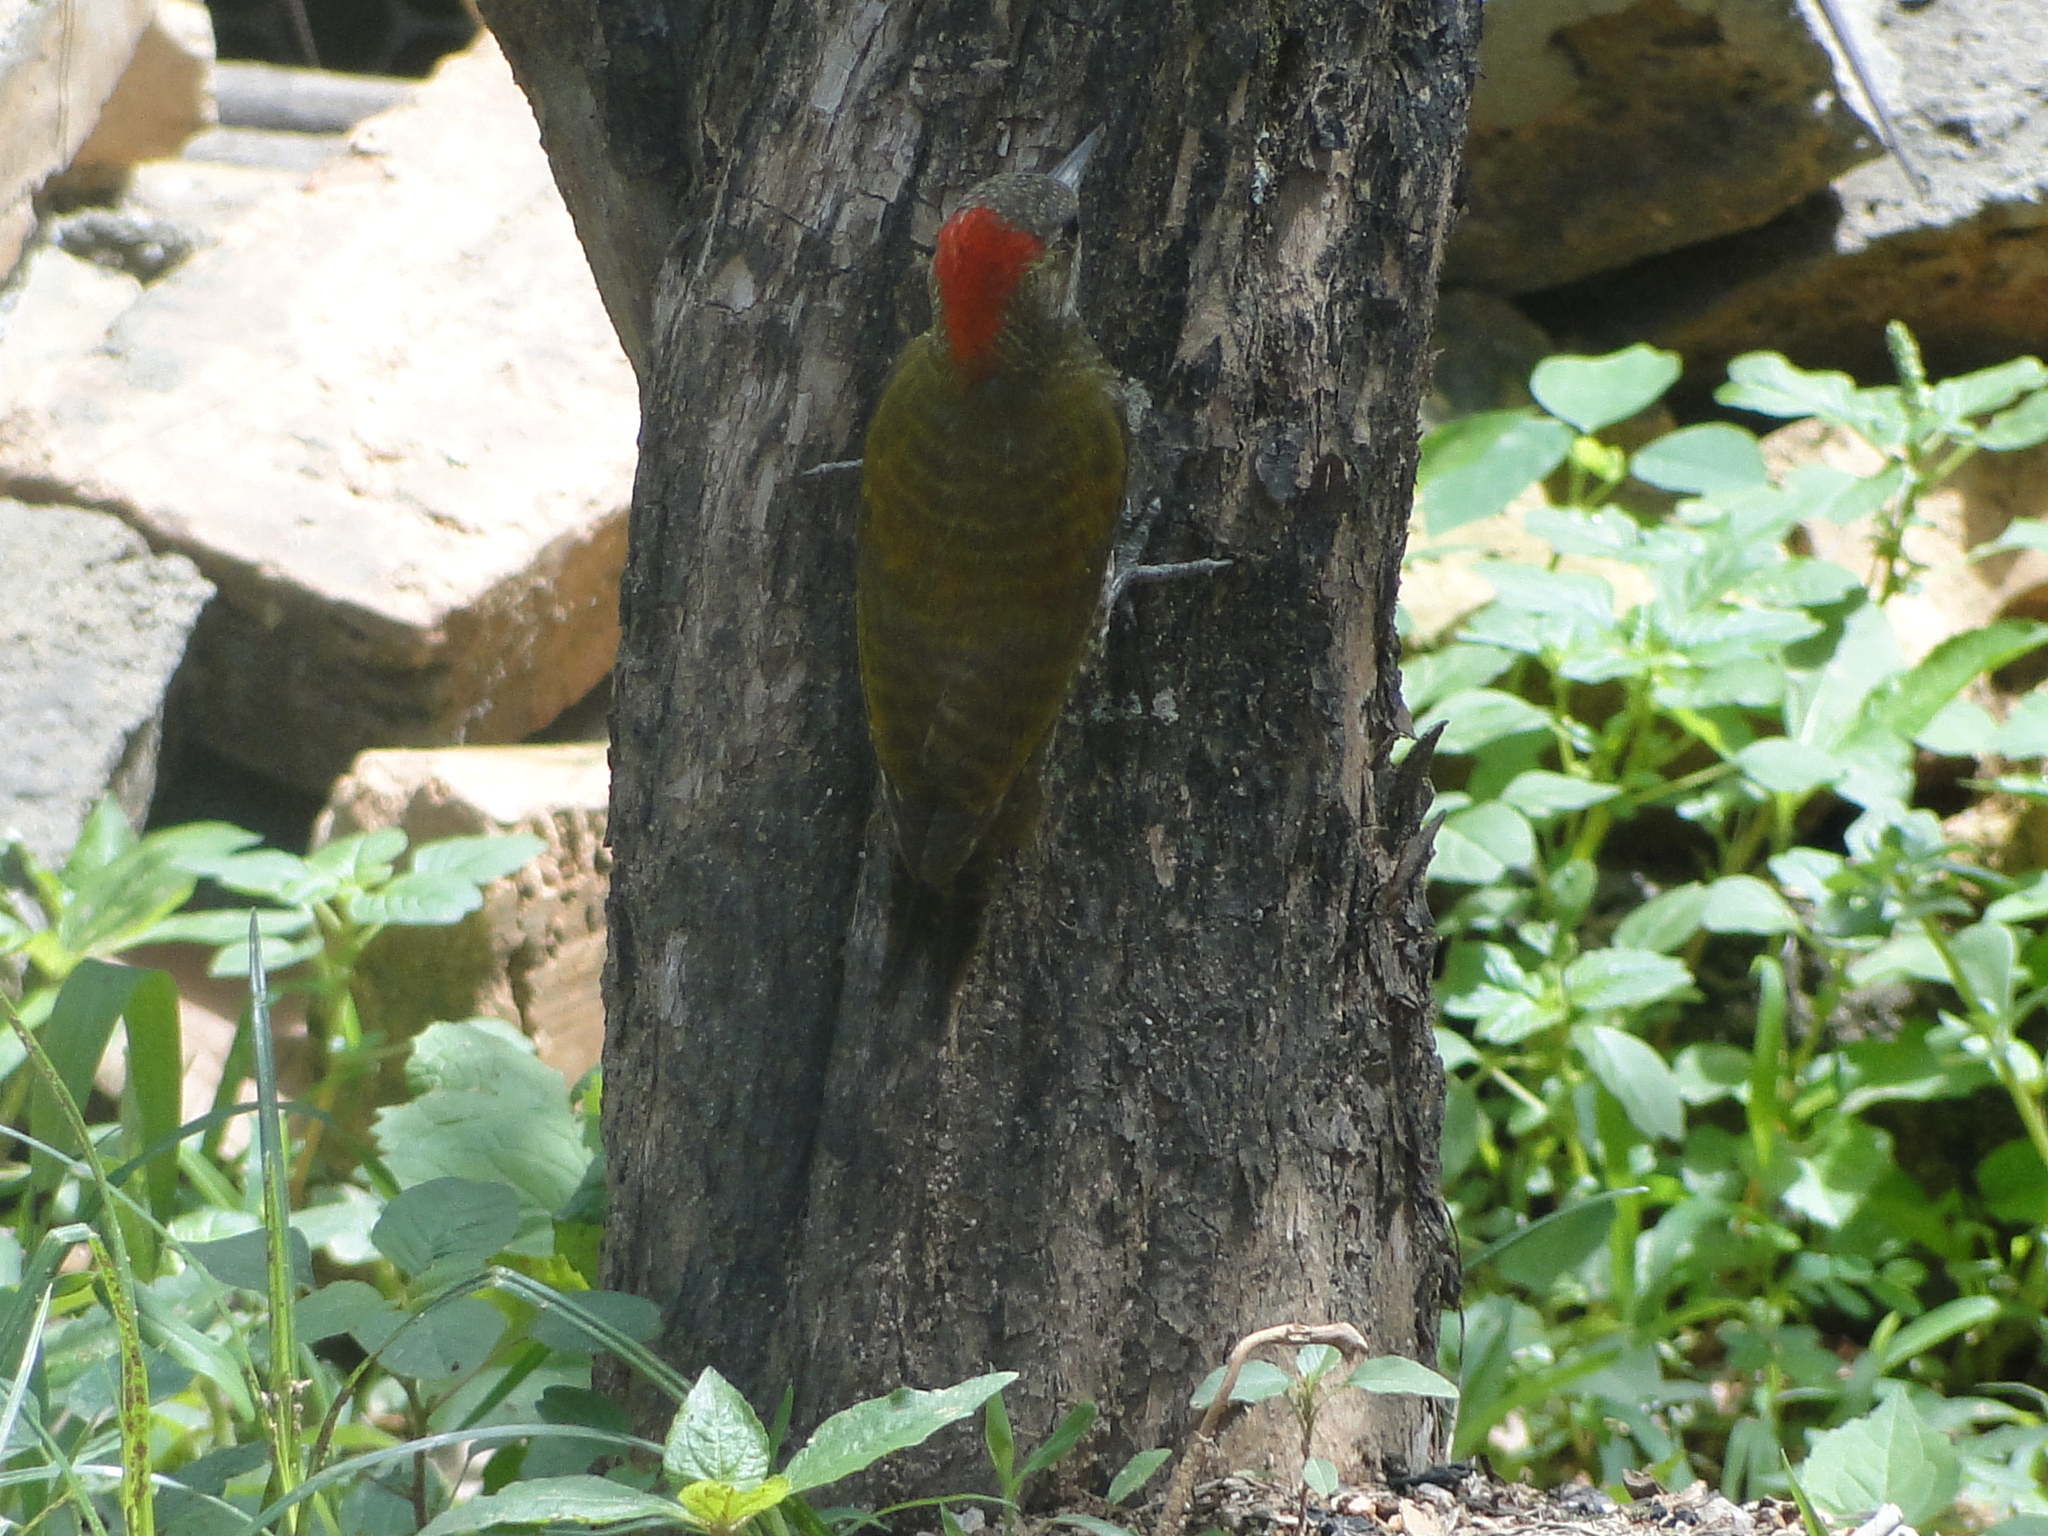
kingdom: Animalia
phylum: Chordata
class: Aves
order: Piciformes
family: Picidae
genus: Veniliornis
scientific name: Veniliornis passerinus
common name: Little woodpecker
